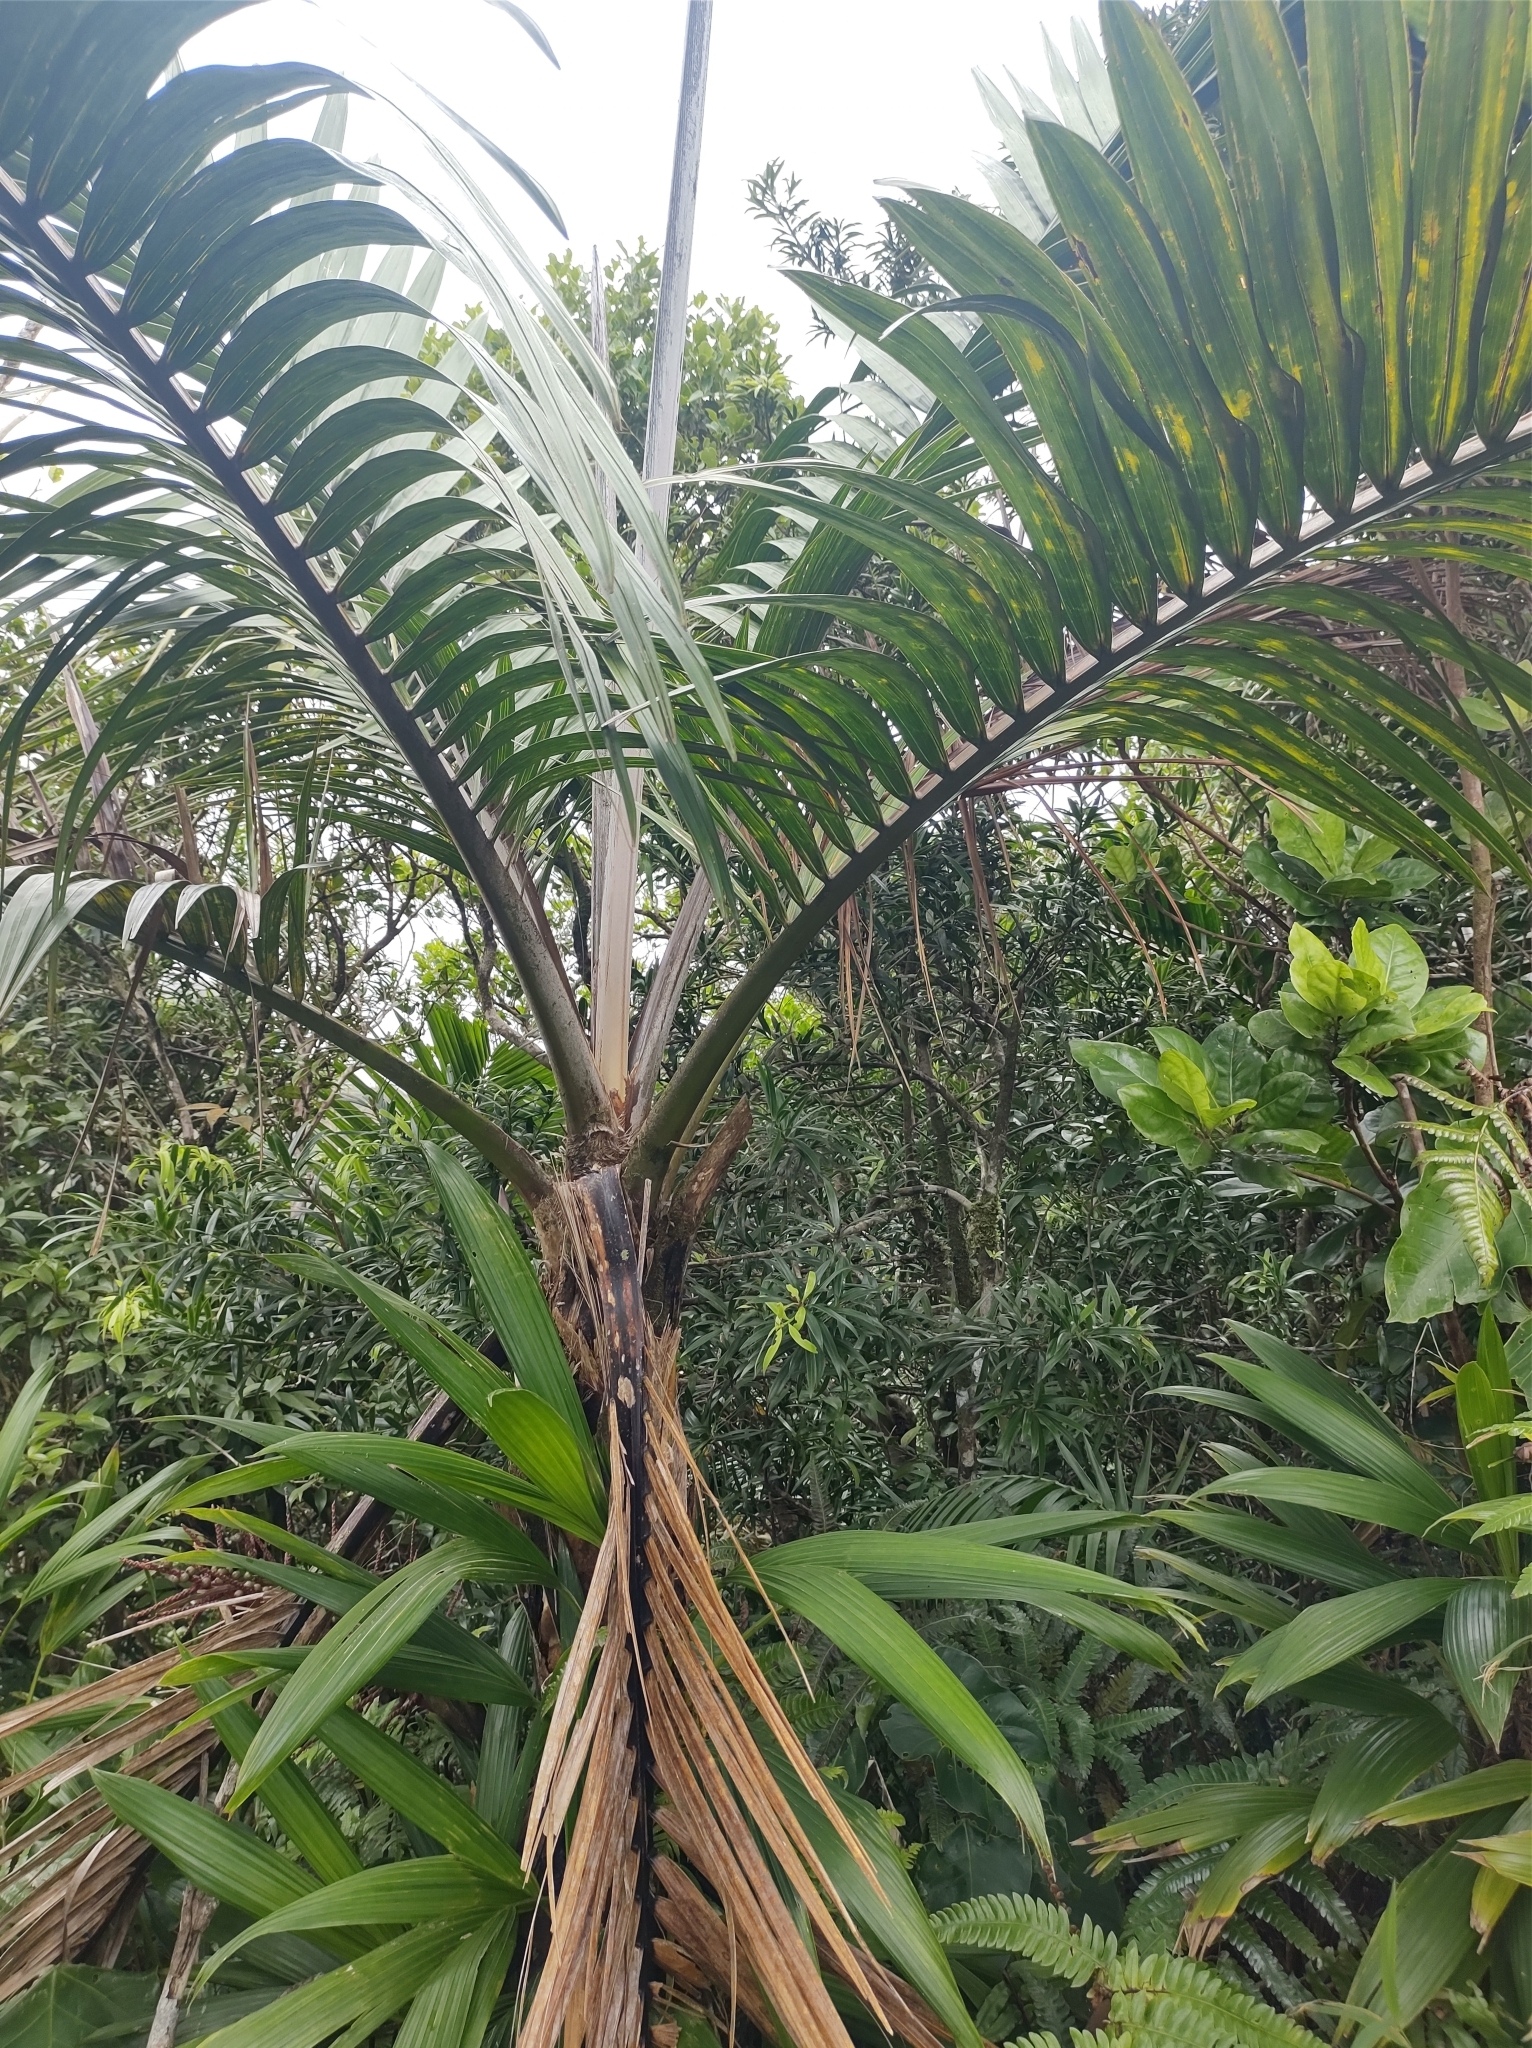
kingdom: Plantae
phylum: Tracheophyta
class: Liliopsida
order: Arecales
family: Arecaceae
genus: Prestoea
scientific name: Prestoea acuminata
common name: Sierran palm
